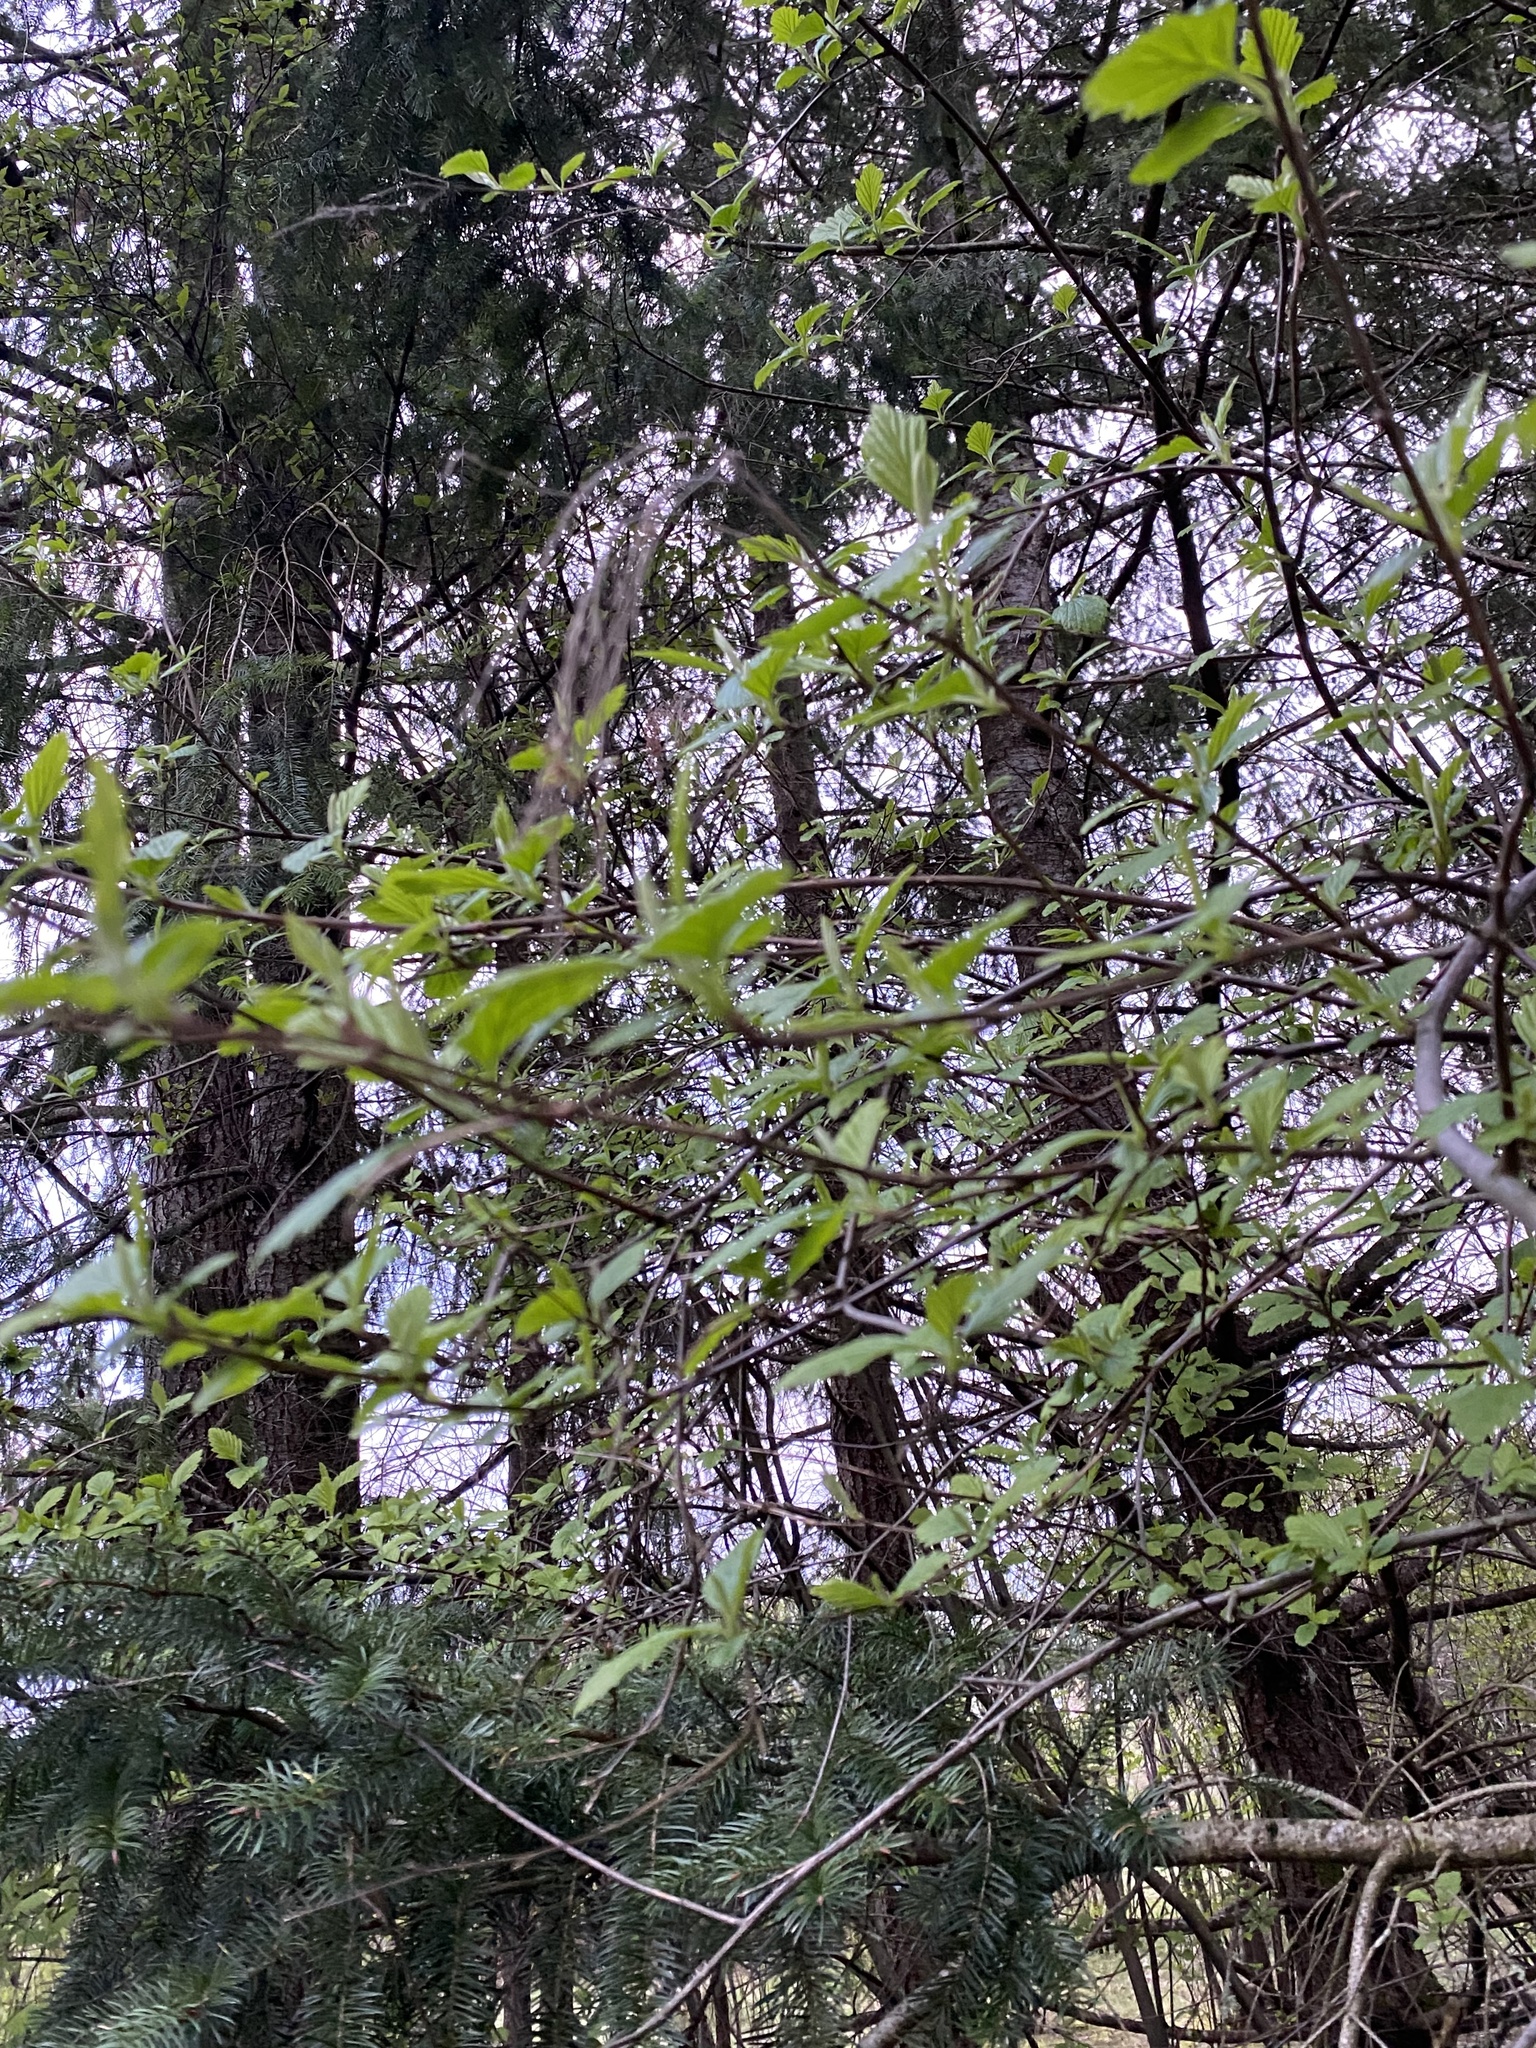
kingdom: Plantae
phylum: Tracheophyta
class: Magnoliopsida
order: Rosales
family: Rosaceae
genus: Holodiscus
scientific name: Holodiscus discolor
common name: Oceanspray
